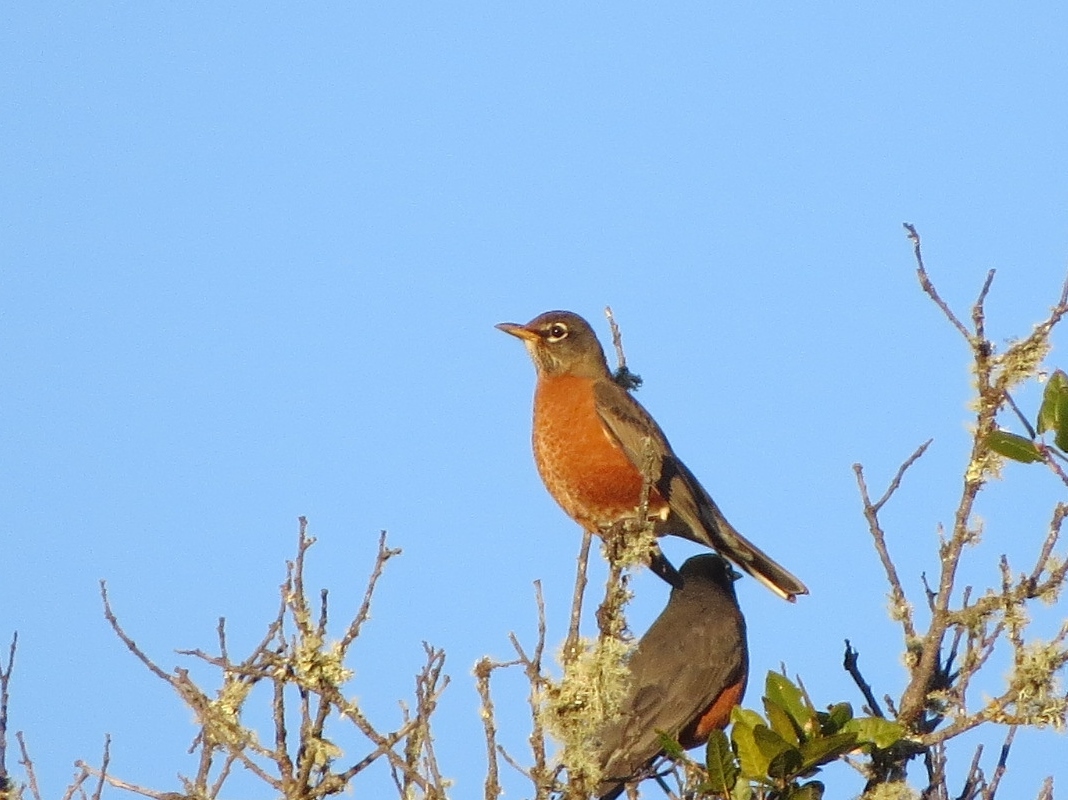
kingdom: Animalia
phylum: Chordata
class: Aves
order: Passeriformes
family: Turdidae
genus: Turdus
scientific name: Turdus migratorius
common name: American robin
